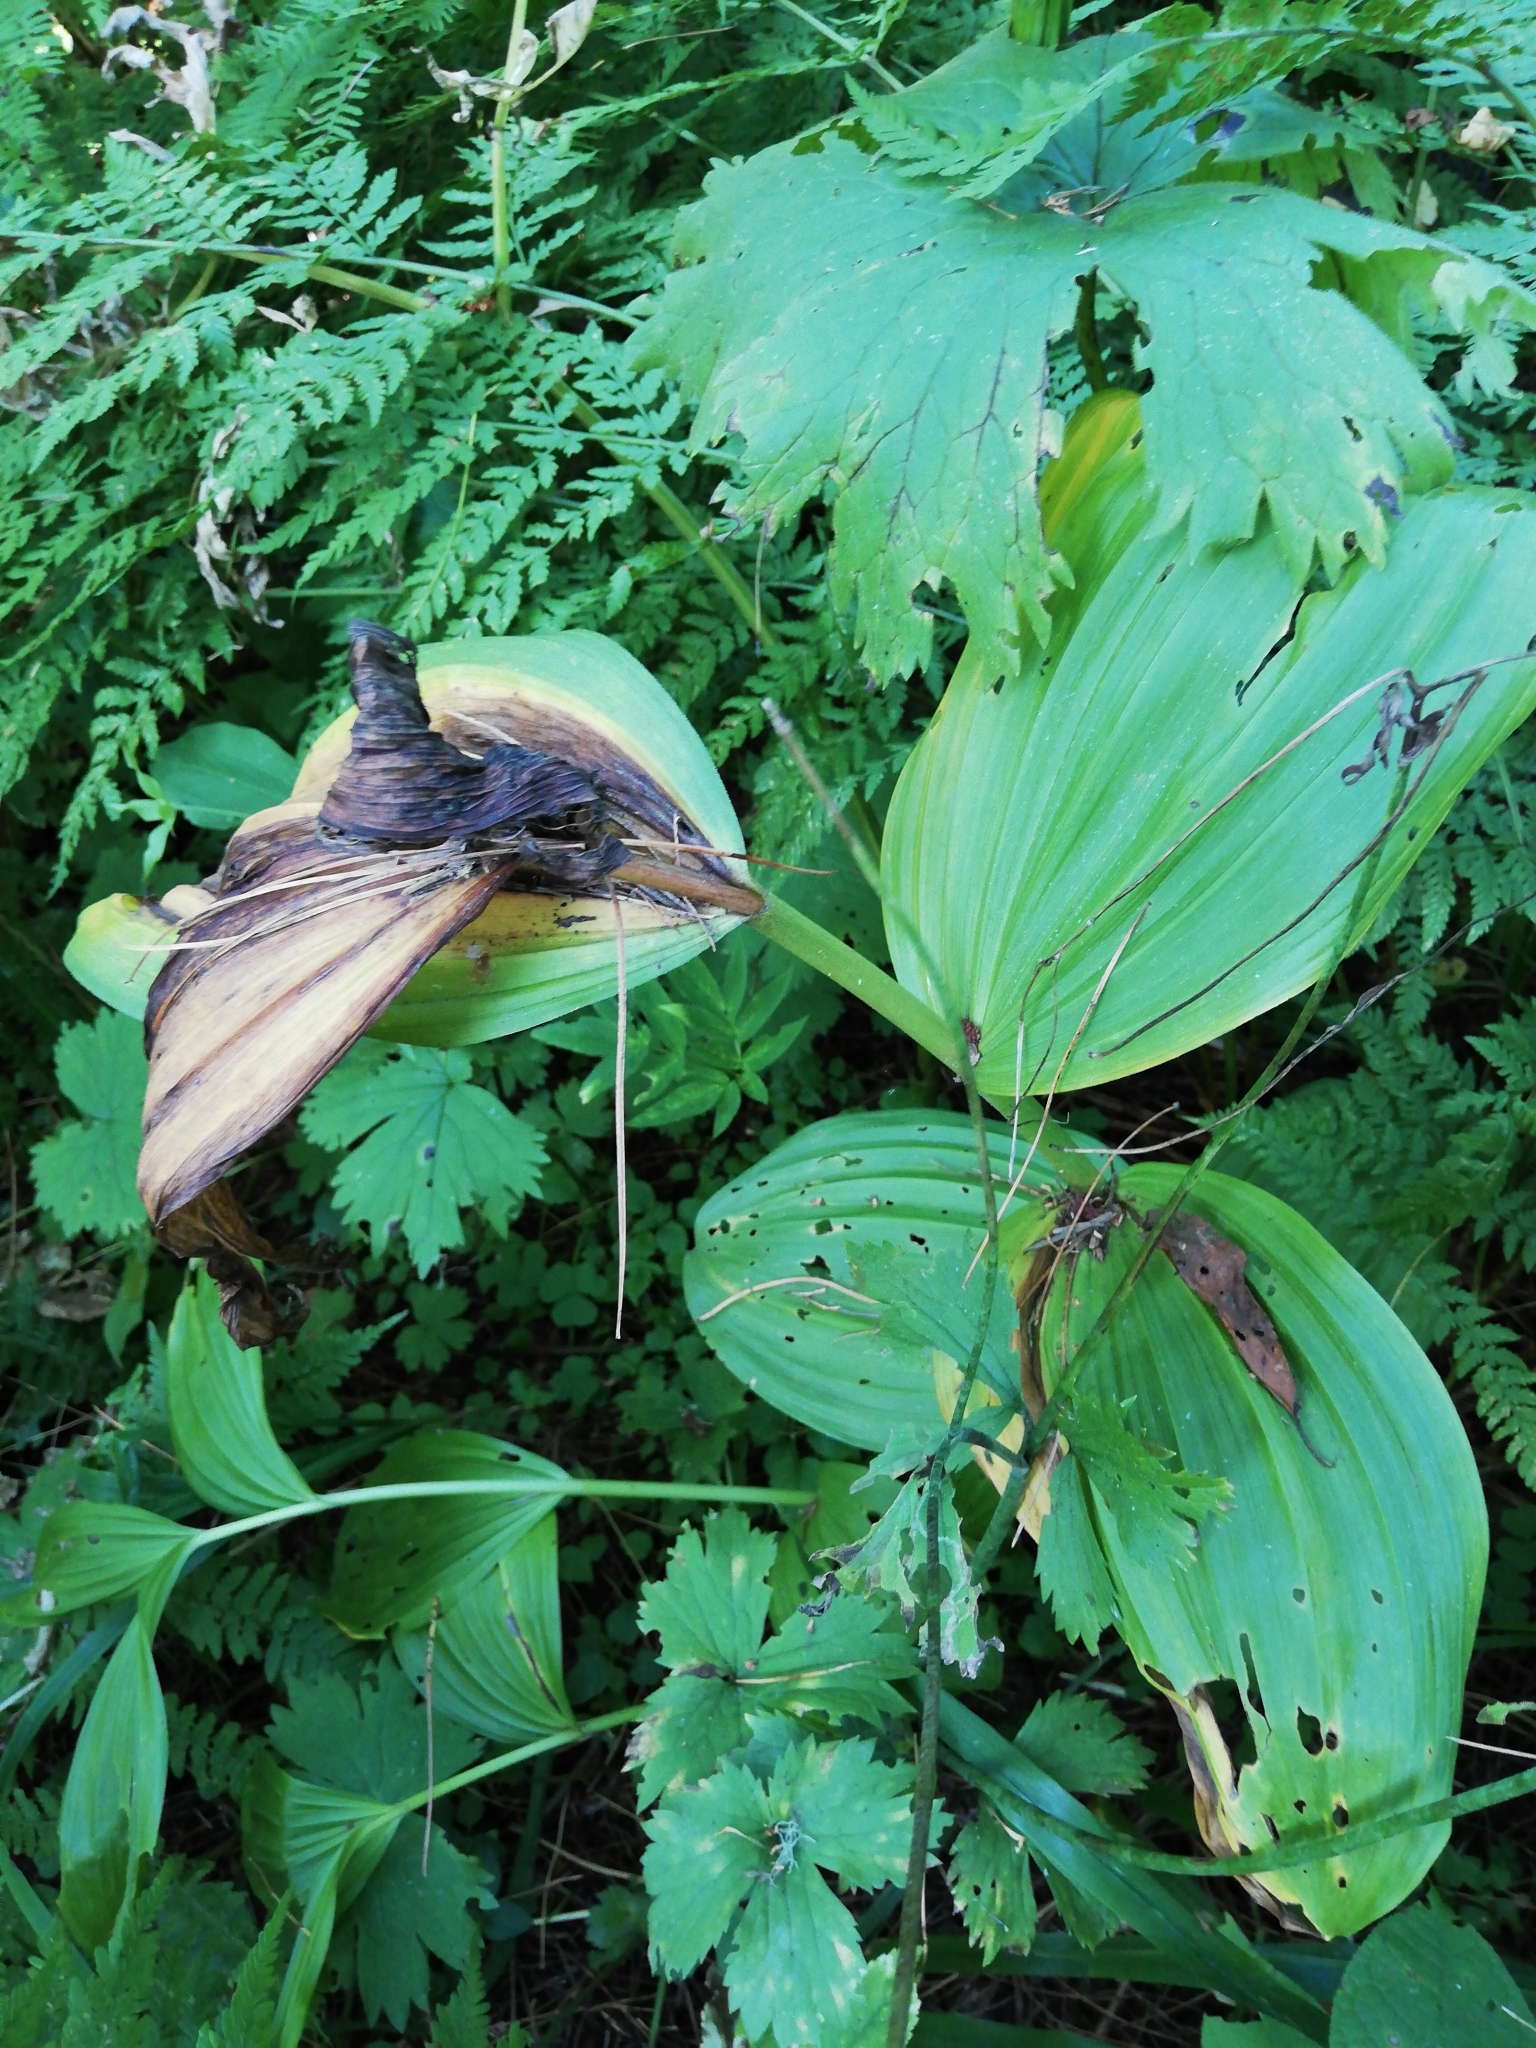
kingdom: Plantae
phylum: Tracheophyta
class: Liliopsida
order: Liliales
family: Melanthiaceae
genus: Veratrum
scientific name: Veratrum lobelianum
